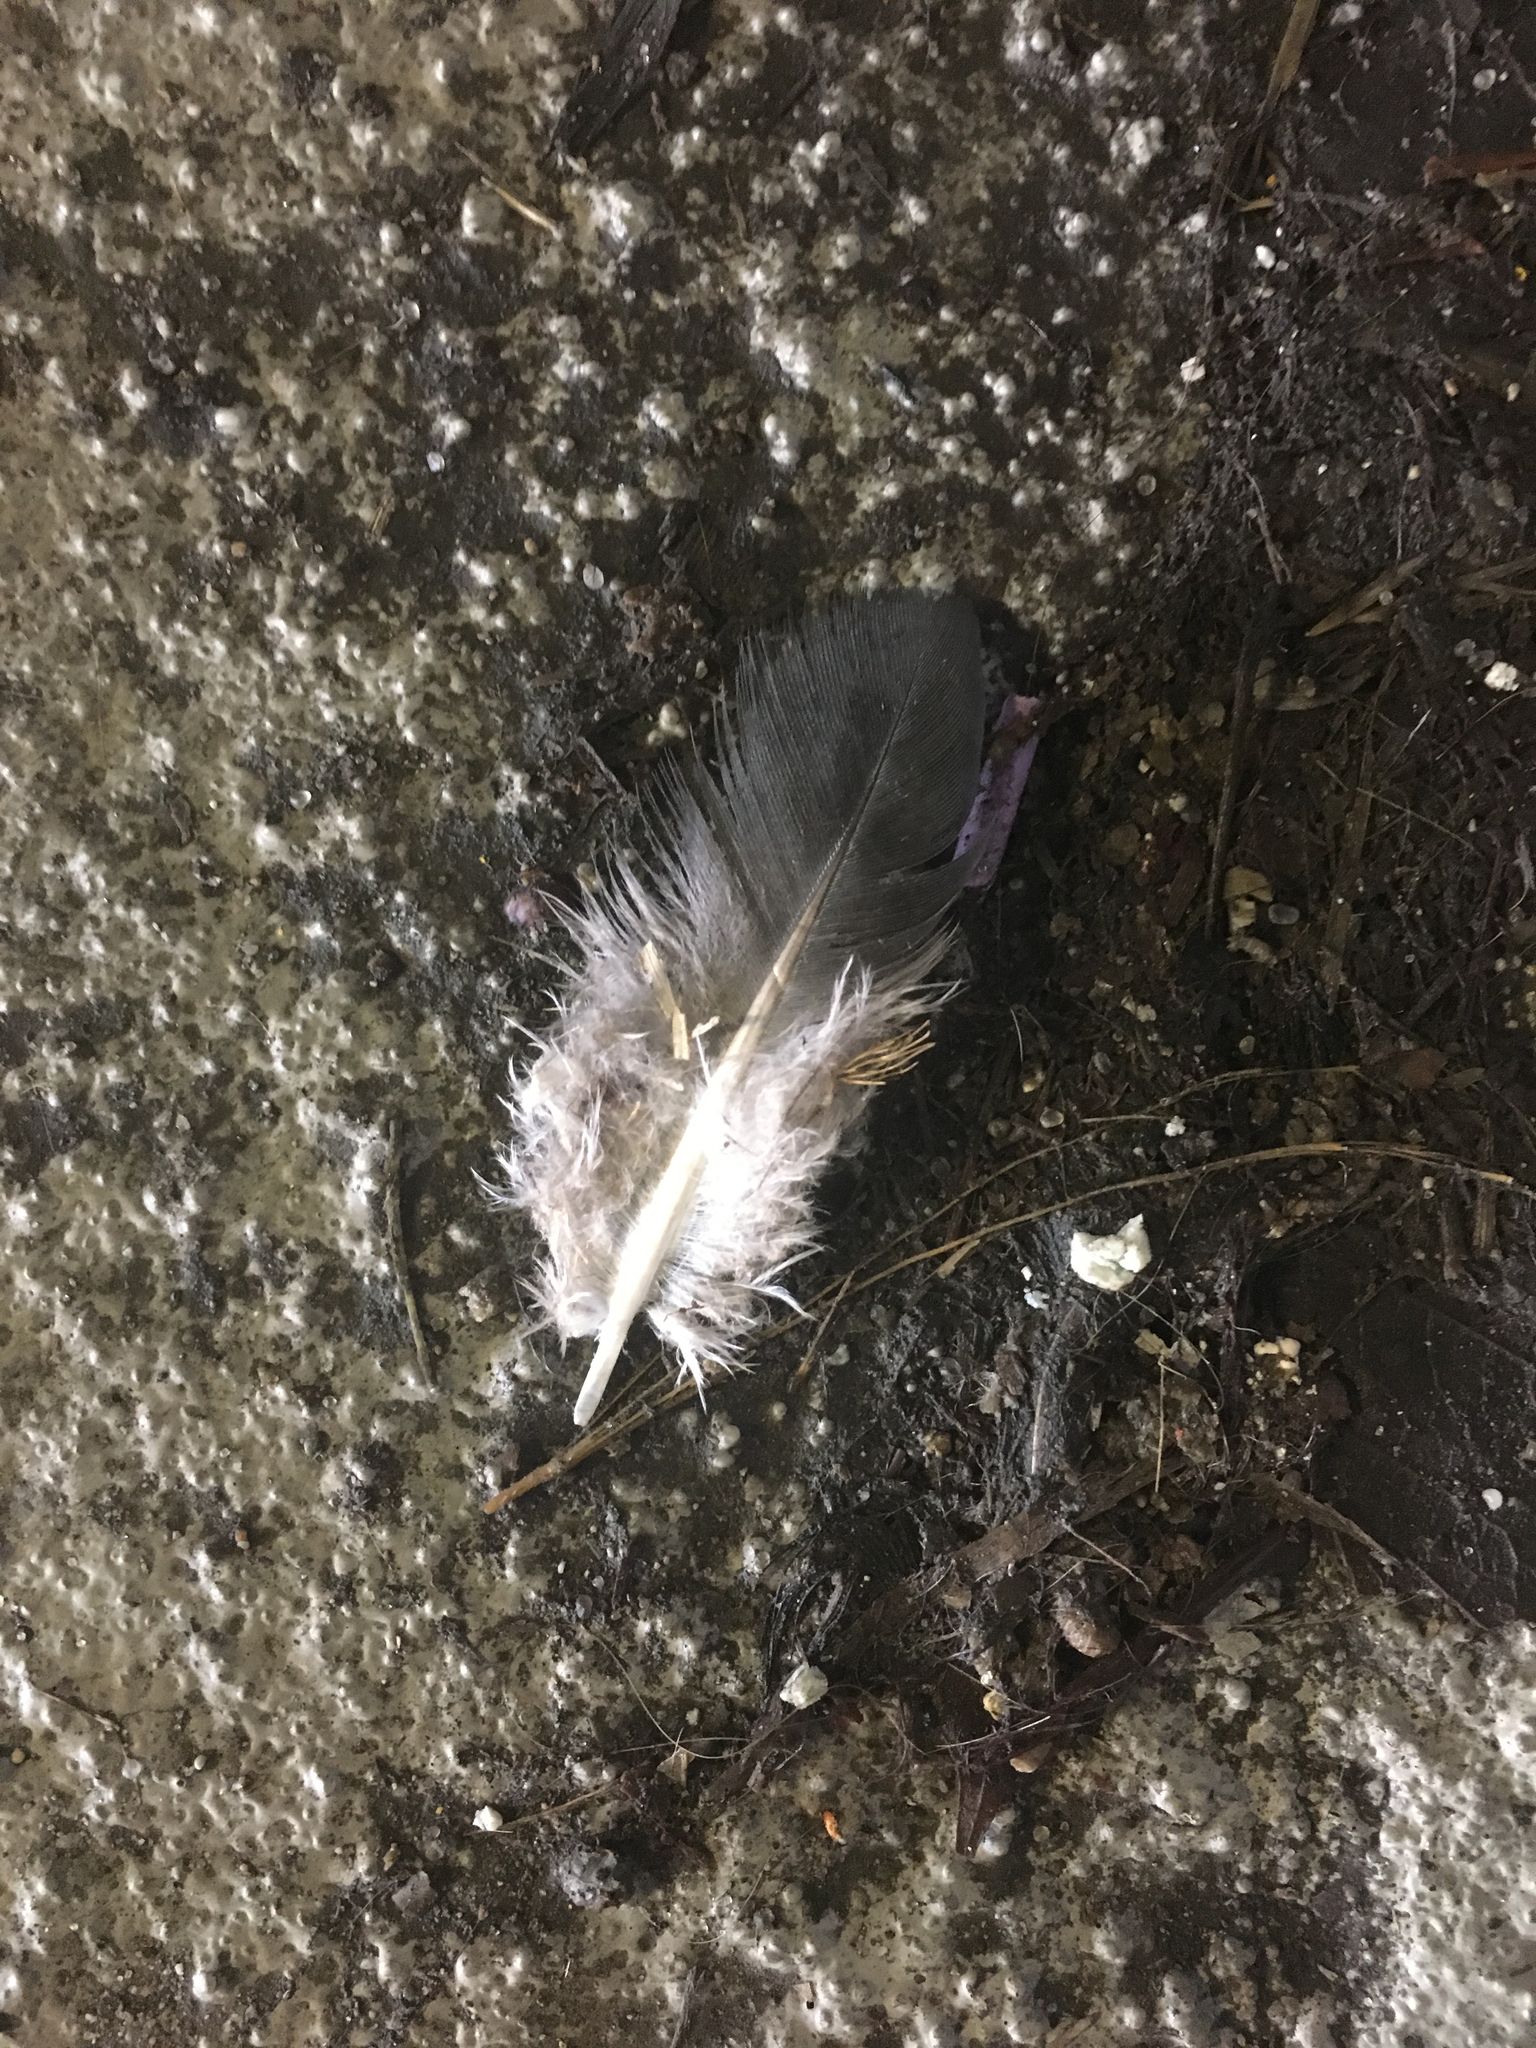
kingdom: Animalia
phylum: Chordata
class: Aves
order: Columbiformes
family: Columbidae
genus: Columba
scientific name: Columba livia
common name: Rock pigeon
